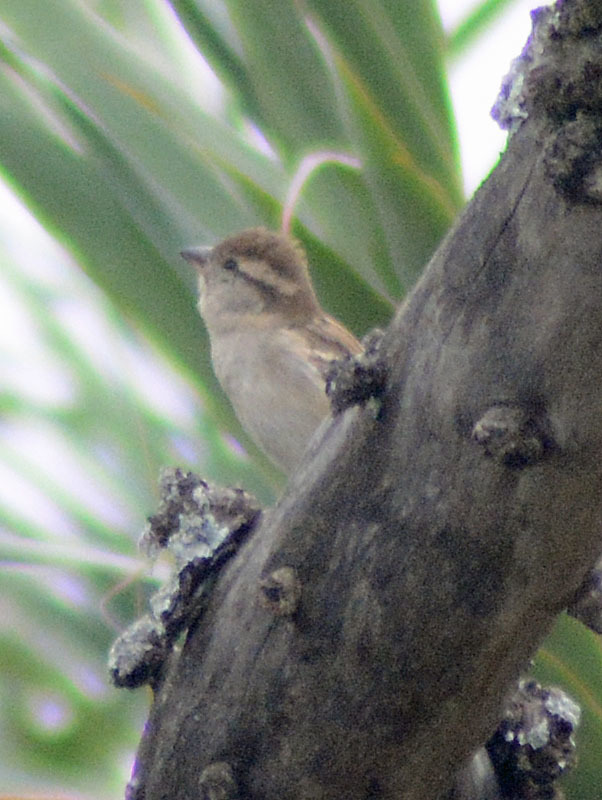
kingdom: Animalia
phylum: Chordata
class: Aves
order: Passeriformes
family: Passeridae
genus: Passer
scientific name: Passer domesticus
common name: House sparrow
